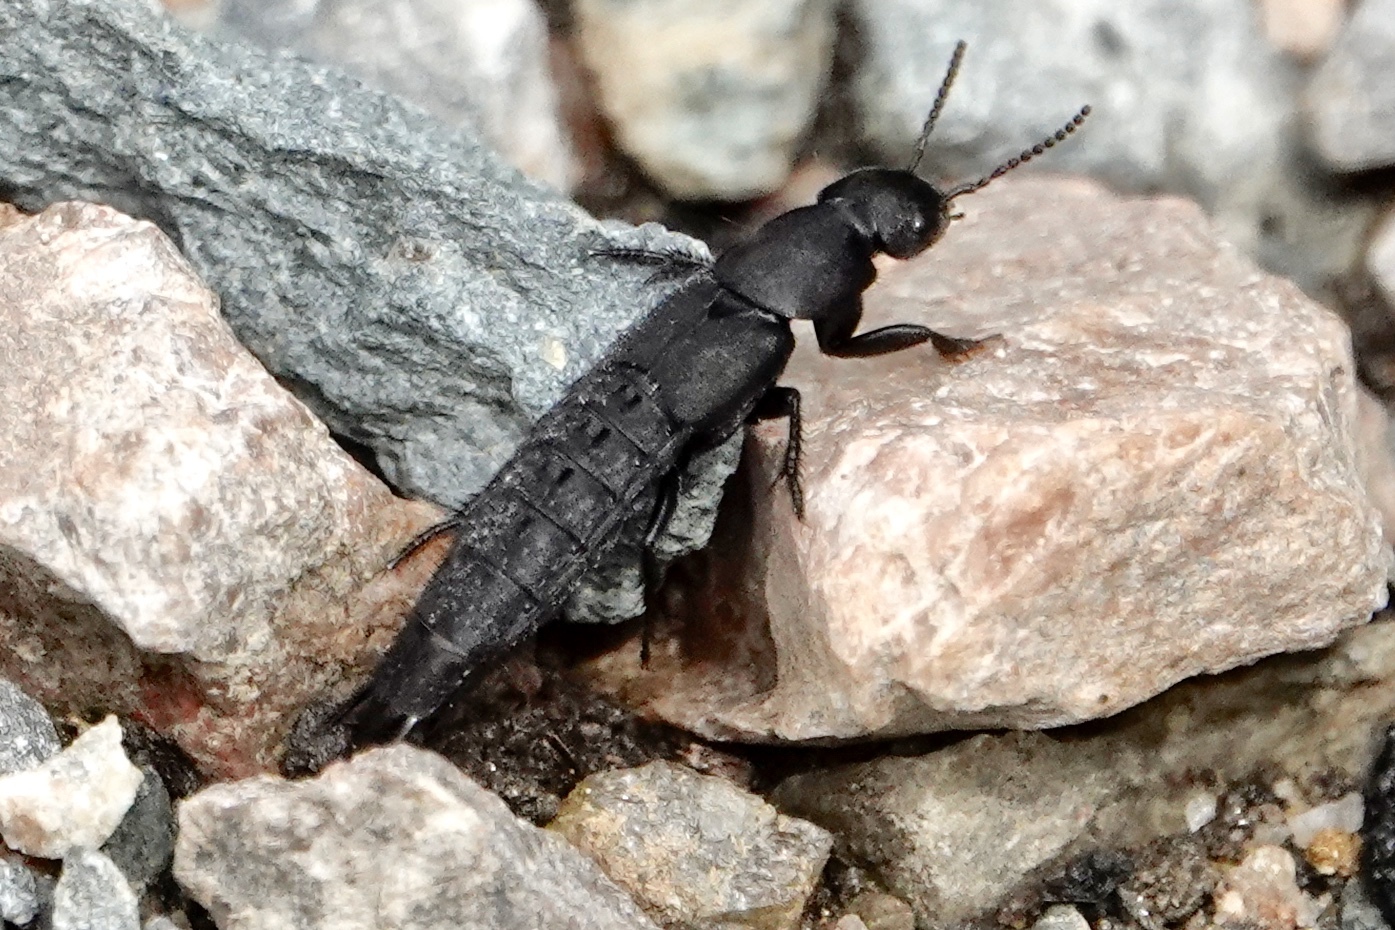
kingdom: Animalia
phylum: Arthropoda
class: Insecta
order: Coleoptera
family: Staphylinidae
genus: Platydracus
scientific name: Platydracus tomentosus
